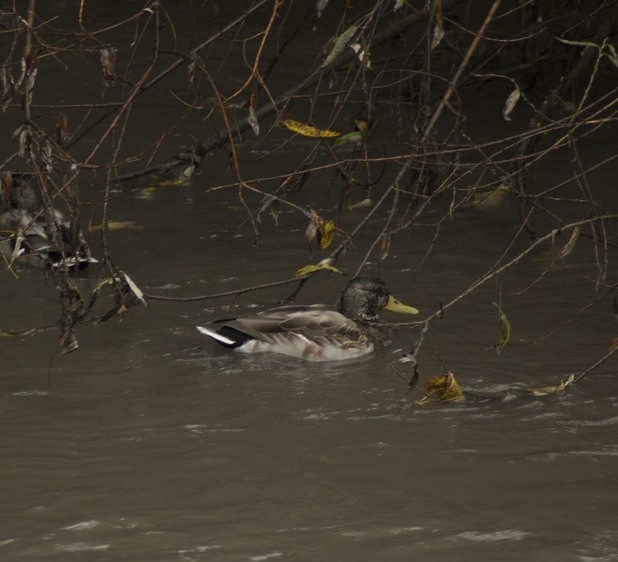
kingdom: Animalia
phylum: Chordata
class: Aves
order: Anseriformes
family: Anatidae
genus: Anas
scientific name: Anas platyrhynchos
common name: Mallard
